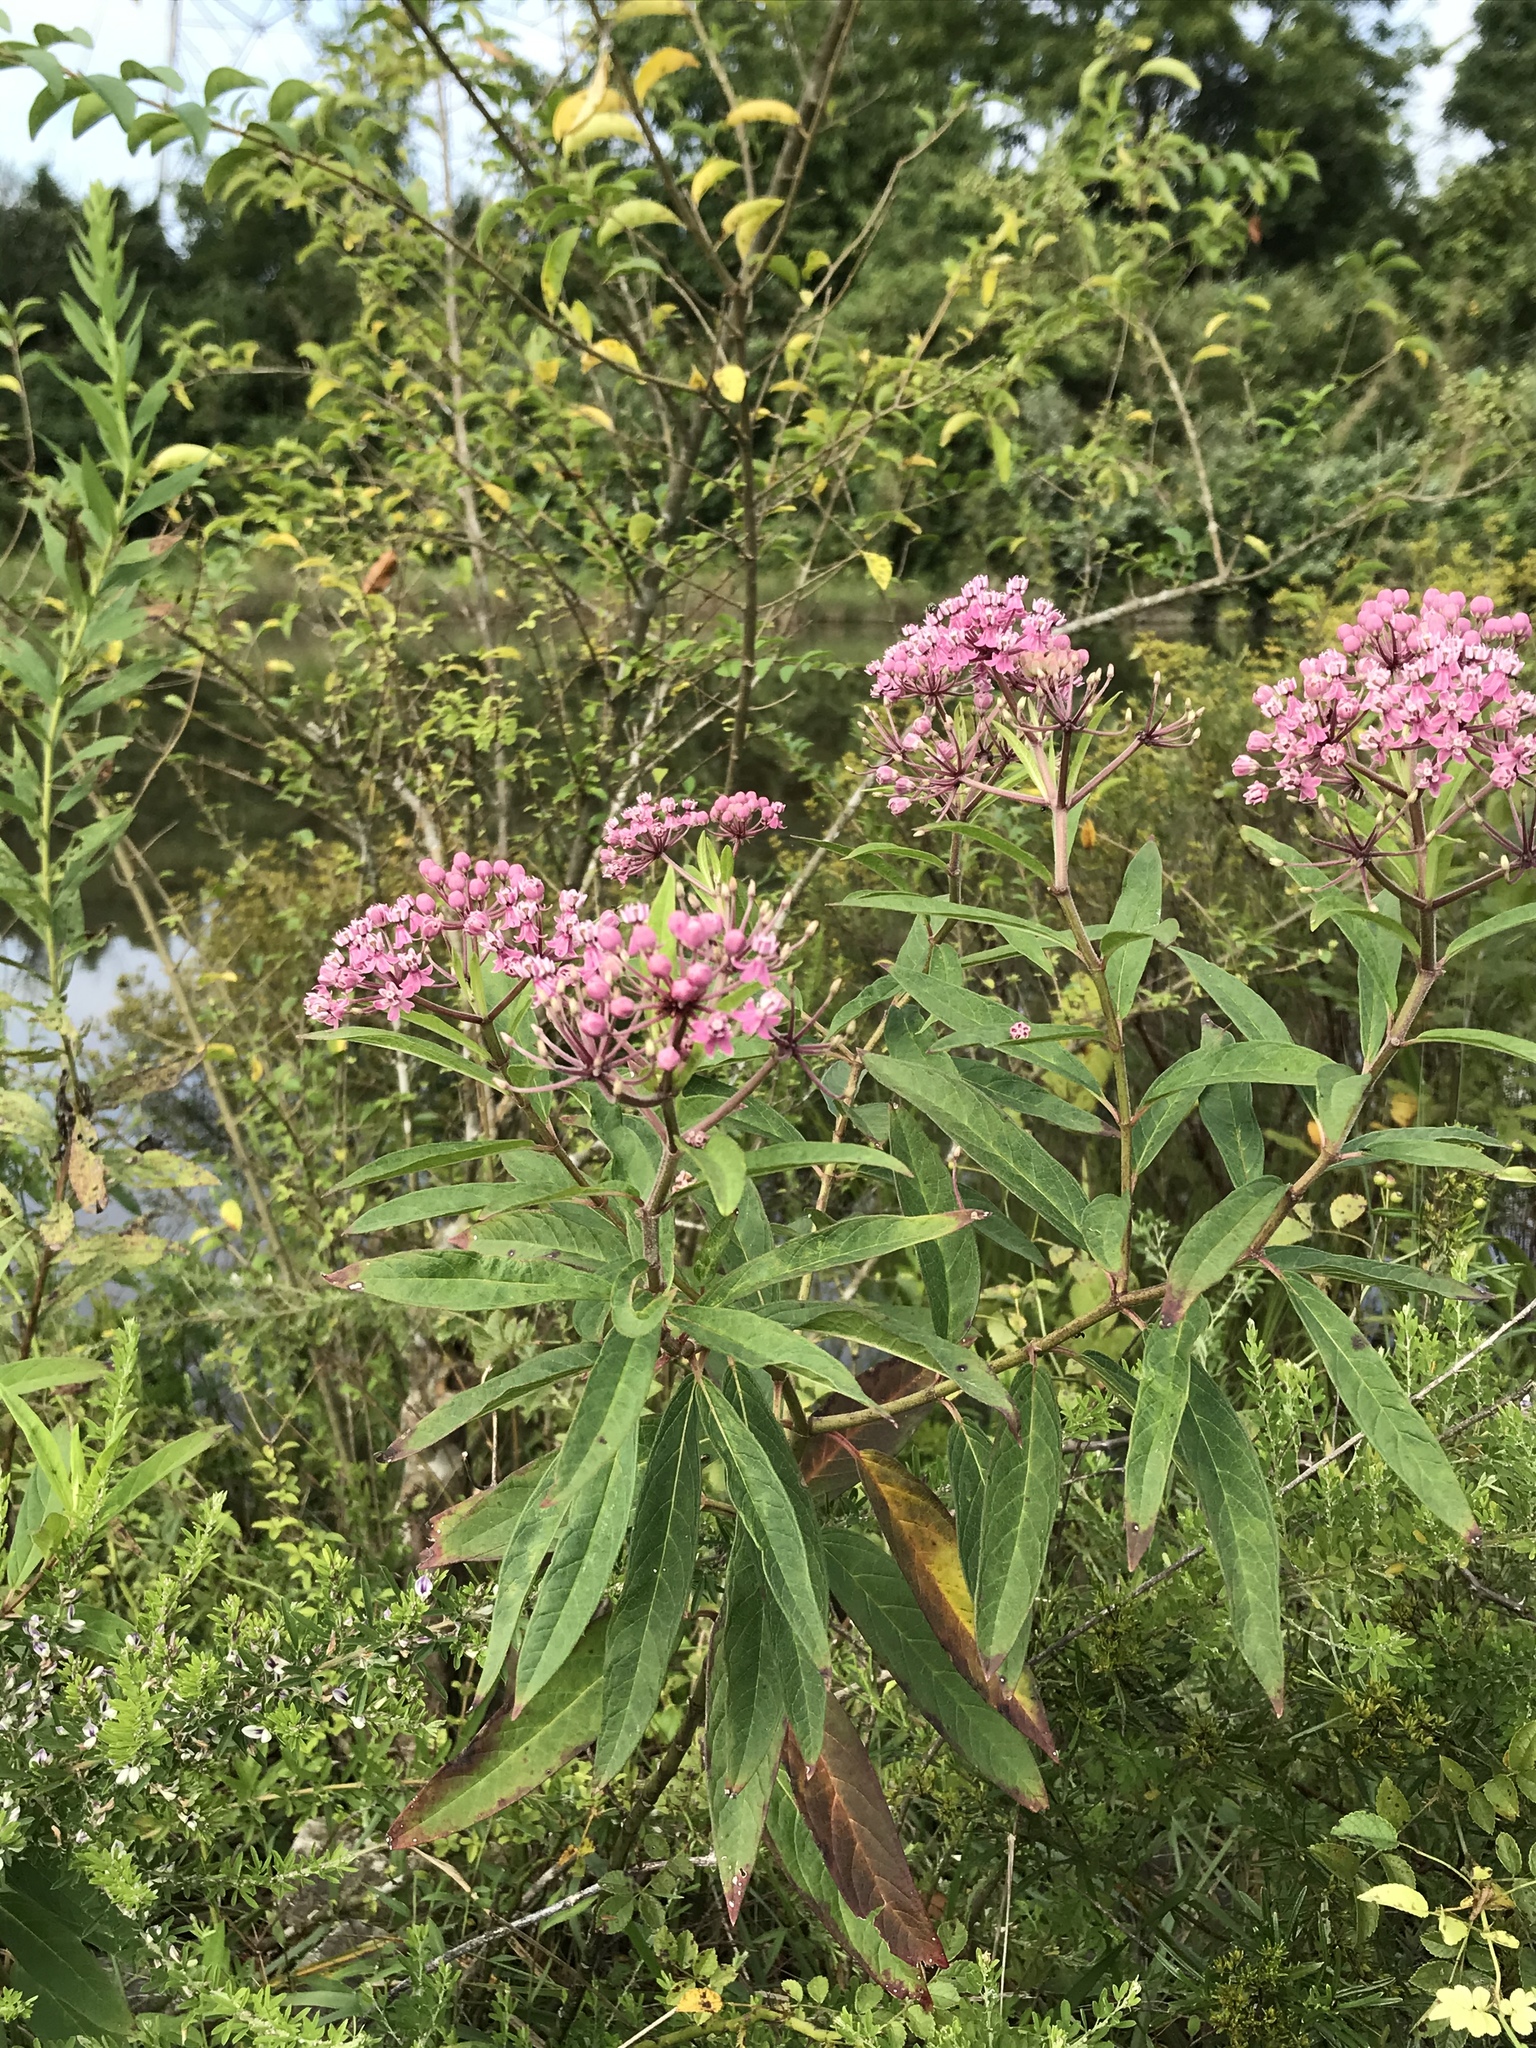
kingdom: Plantae
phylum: Tracheophyta
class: Magnoliopsida
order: Gentianales
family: Apocynaceae
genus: Asclepias
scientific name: Asclepias incarnata
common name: Swamp milkweed
